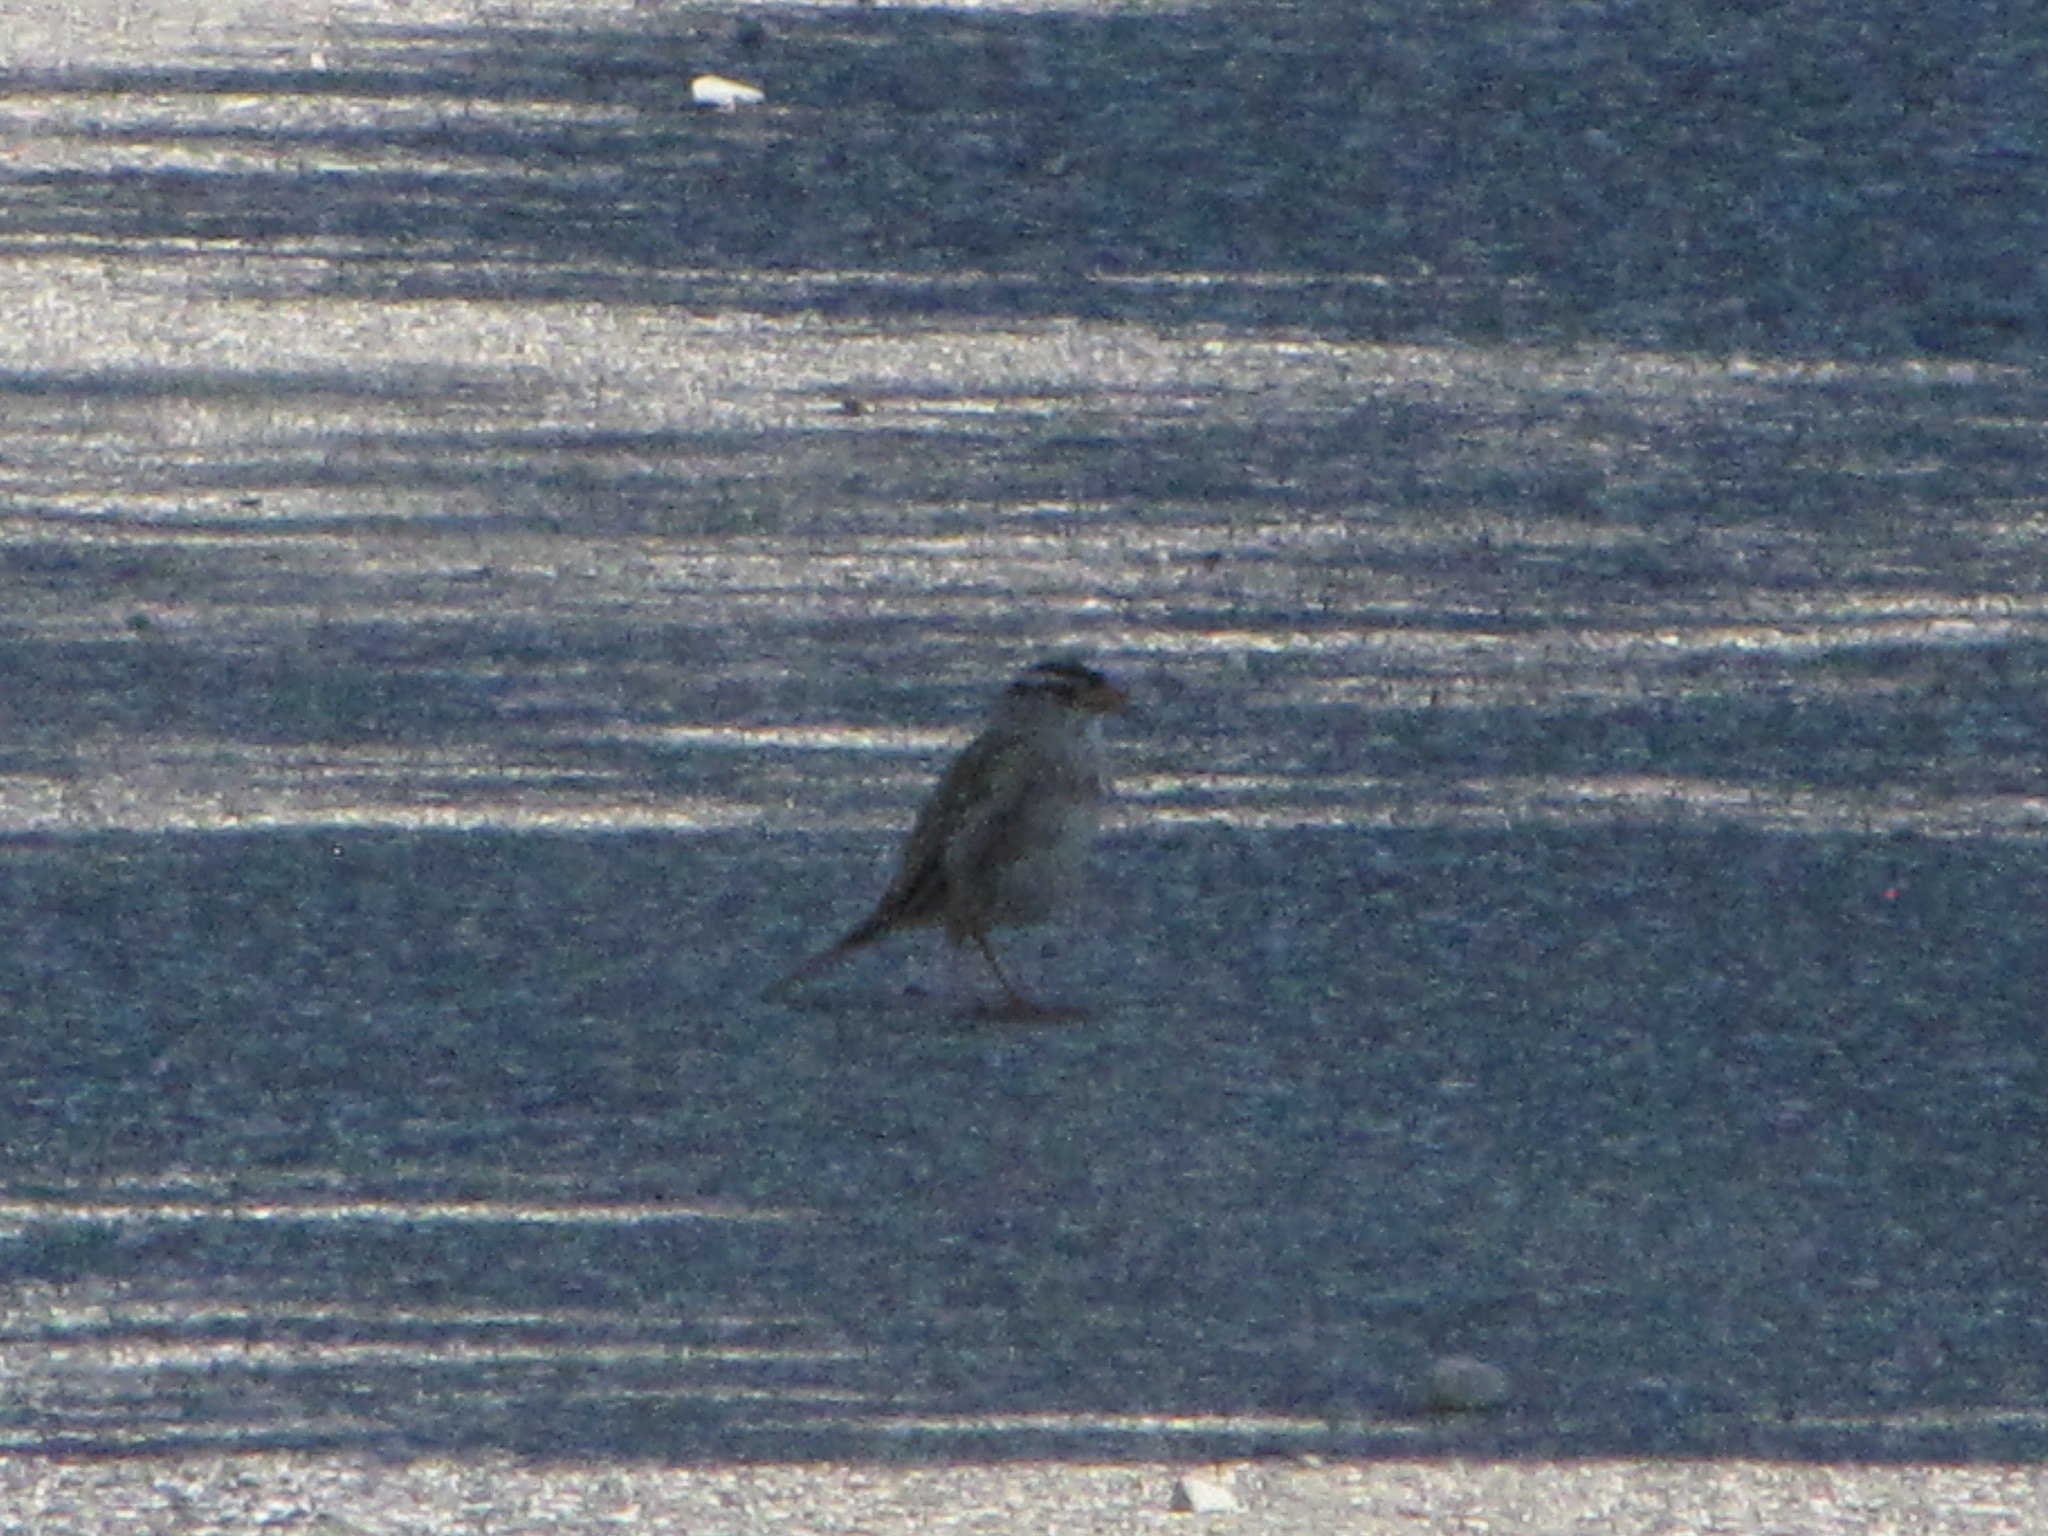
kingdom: Animalia
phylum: Chordata
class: Aves
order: Passeriformes
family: Passerellidae
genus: Zonotrichia
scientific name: Zonotrichia leucophrys
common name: White-crowned sparrow
